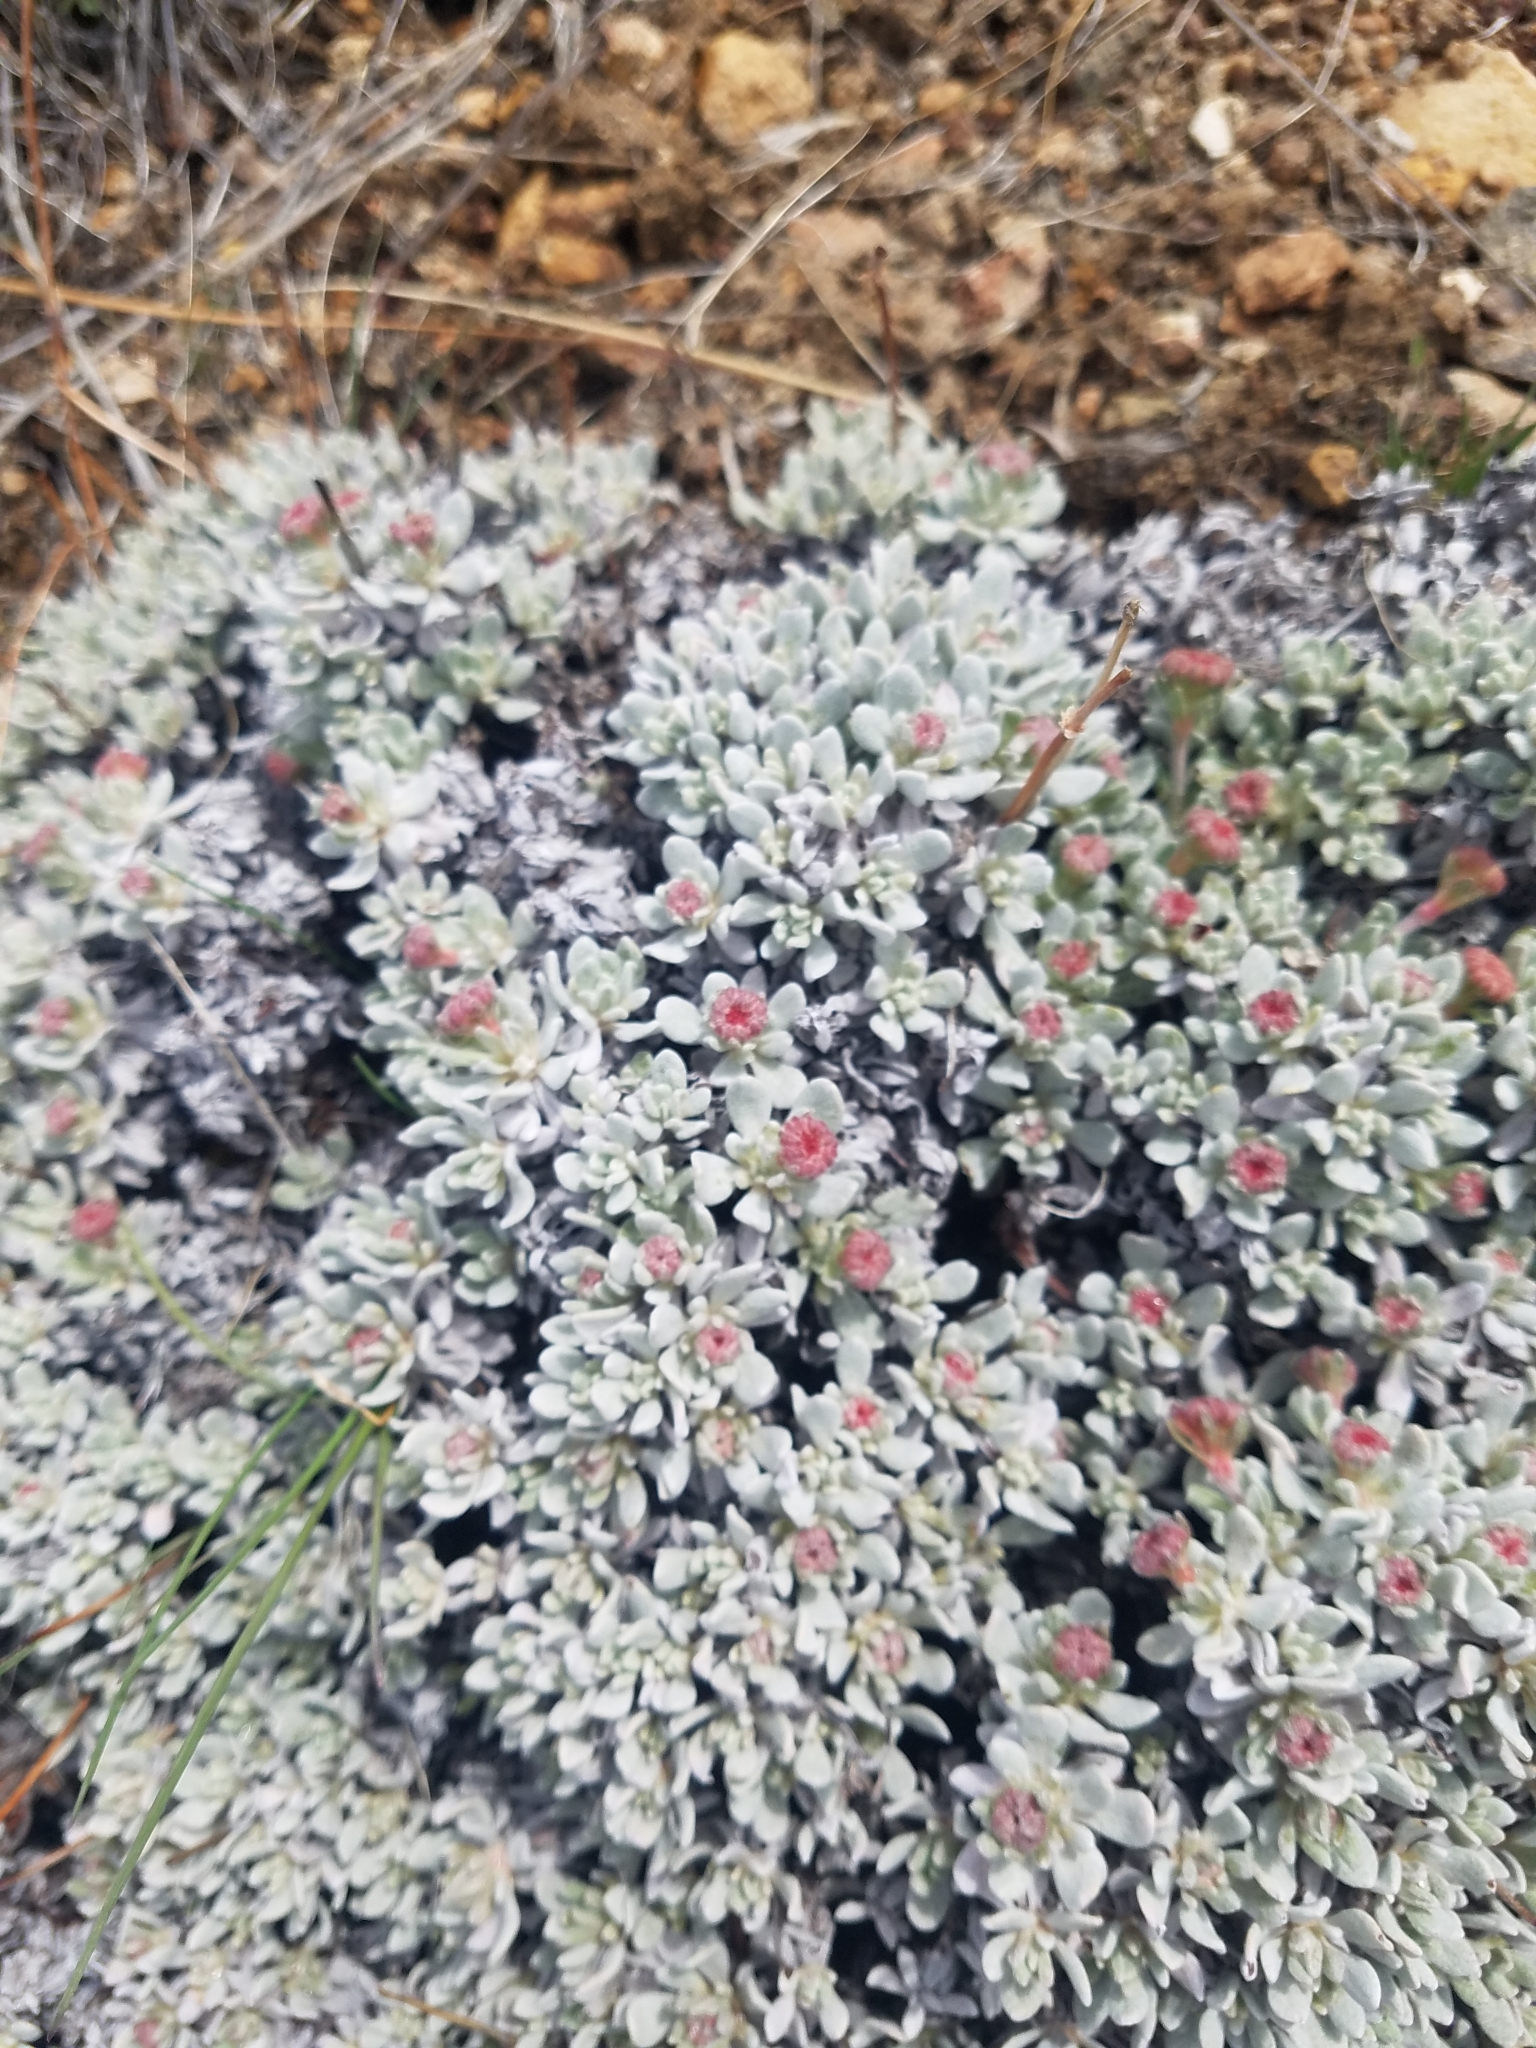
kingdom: Plantae
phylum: Tracheophyta
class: Magnoliopsida
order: Caryophyllales
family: Polygonaceae
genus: Eriogonum
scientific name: Eriogonum caespitosum
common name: Matted wild buckwheat
